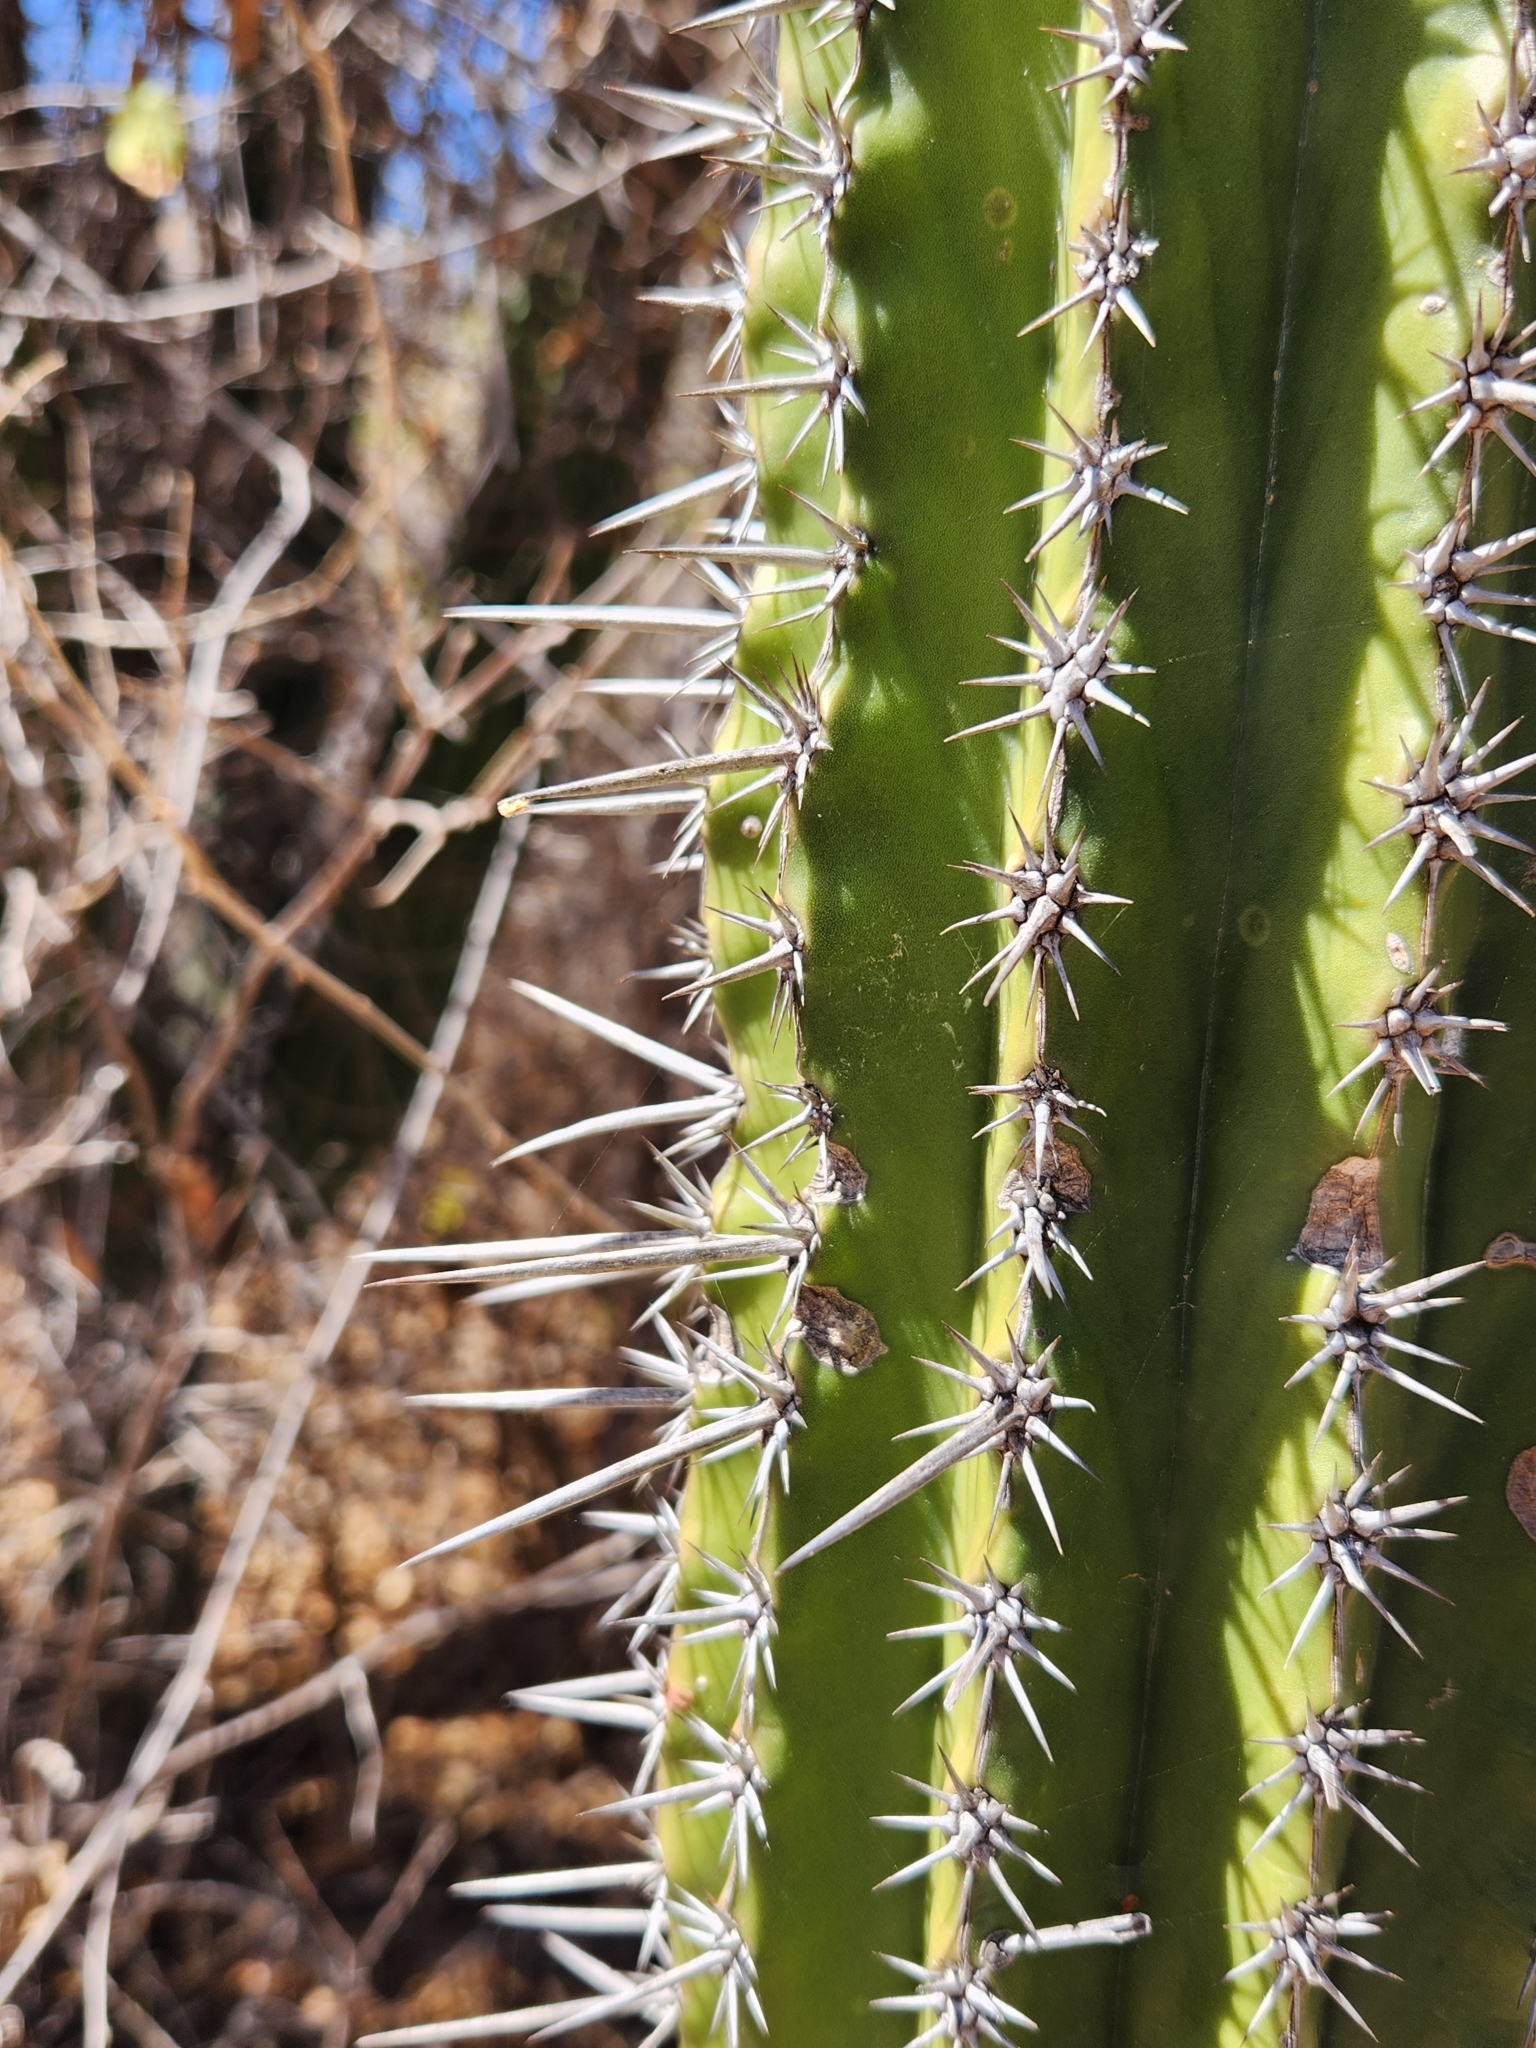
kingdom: Plantae
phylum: Tracheophyta
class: Magnoliopsida
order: Caryophyllales
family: Cactaceae
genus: Pachycereus
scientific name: Pachycereus pecten-aboriginum
